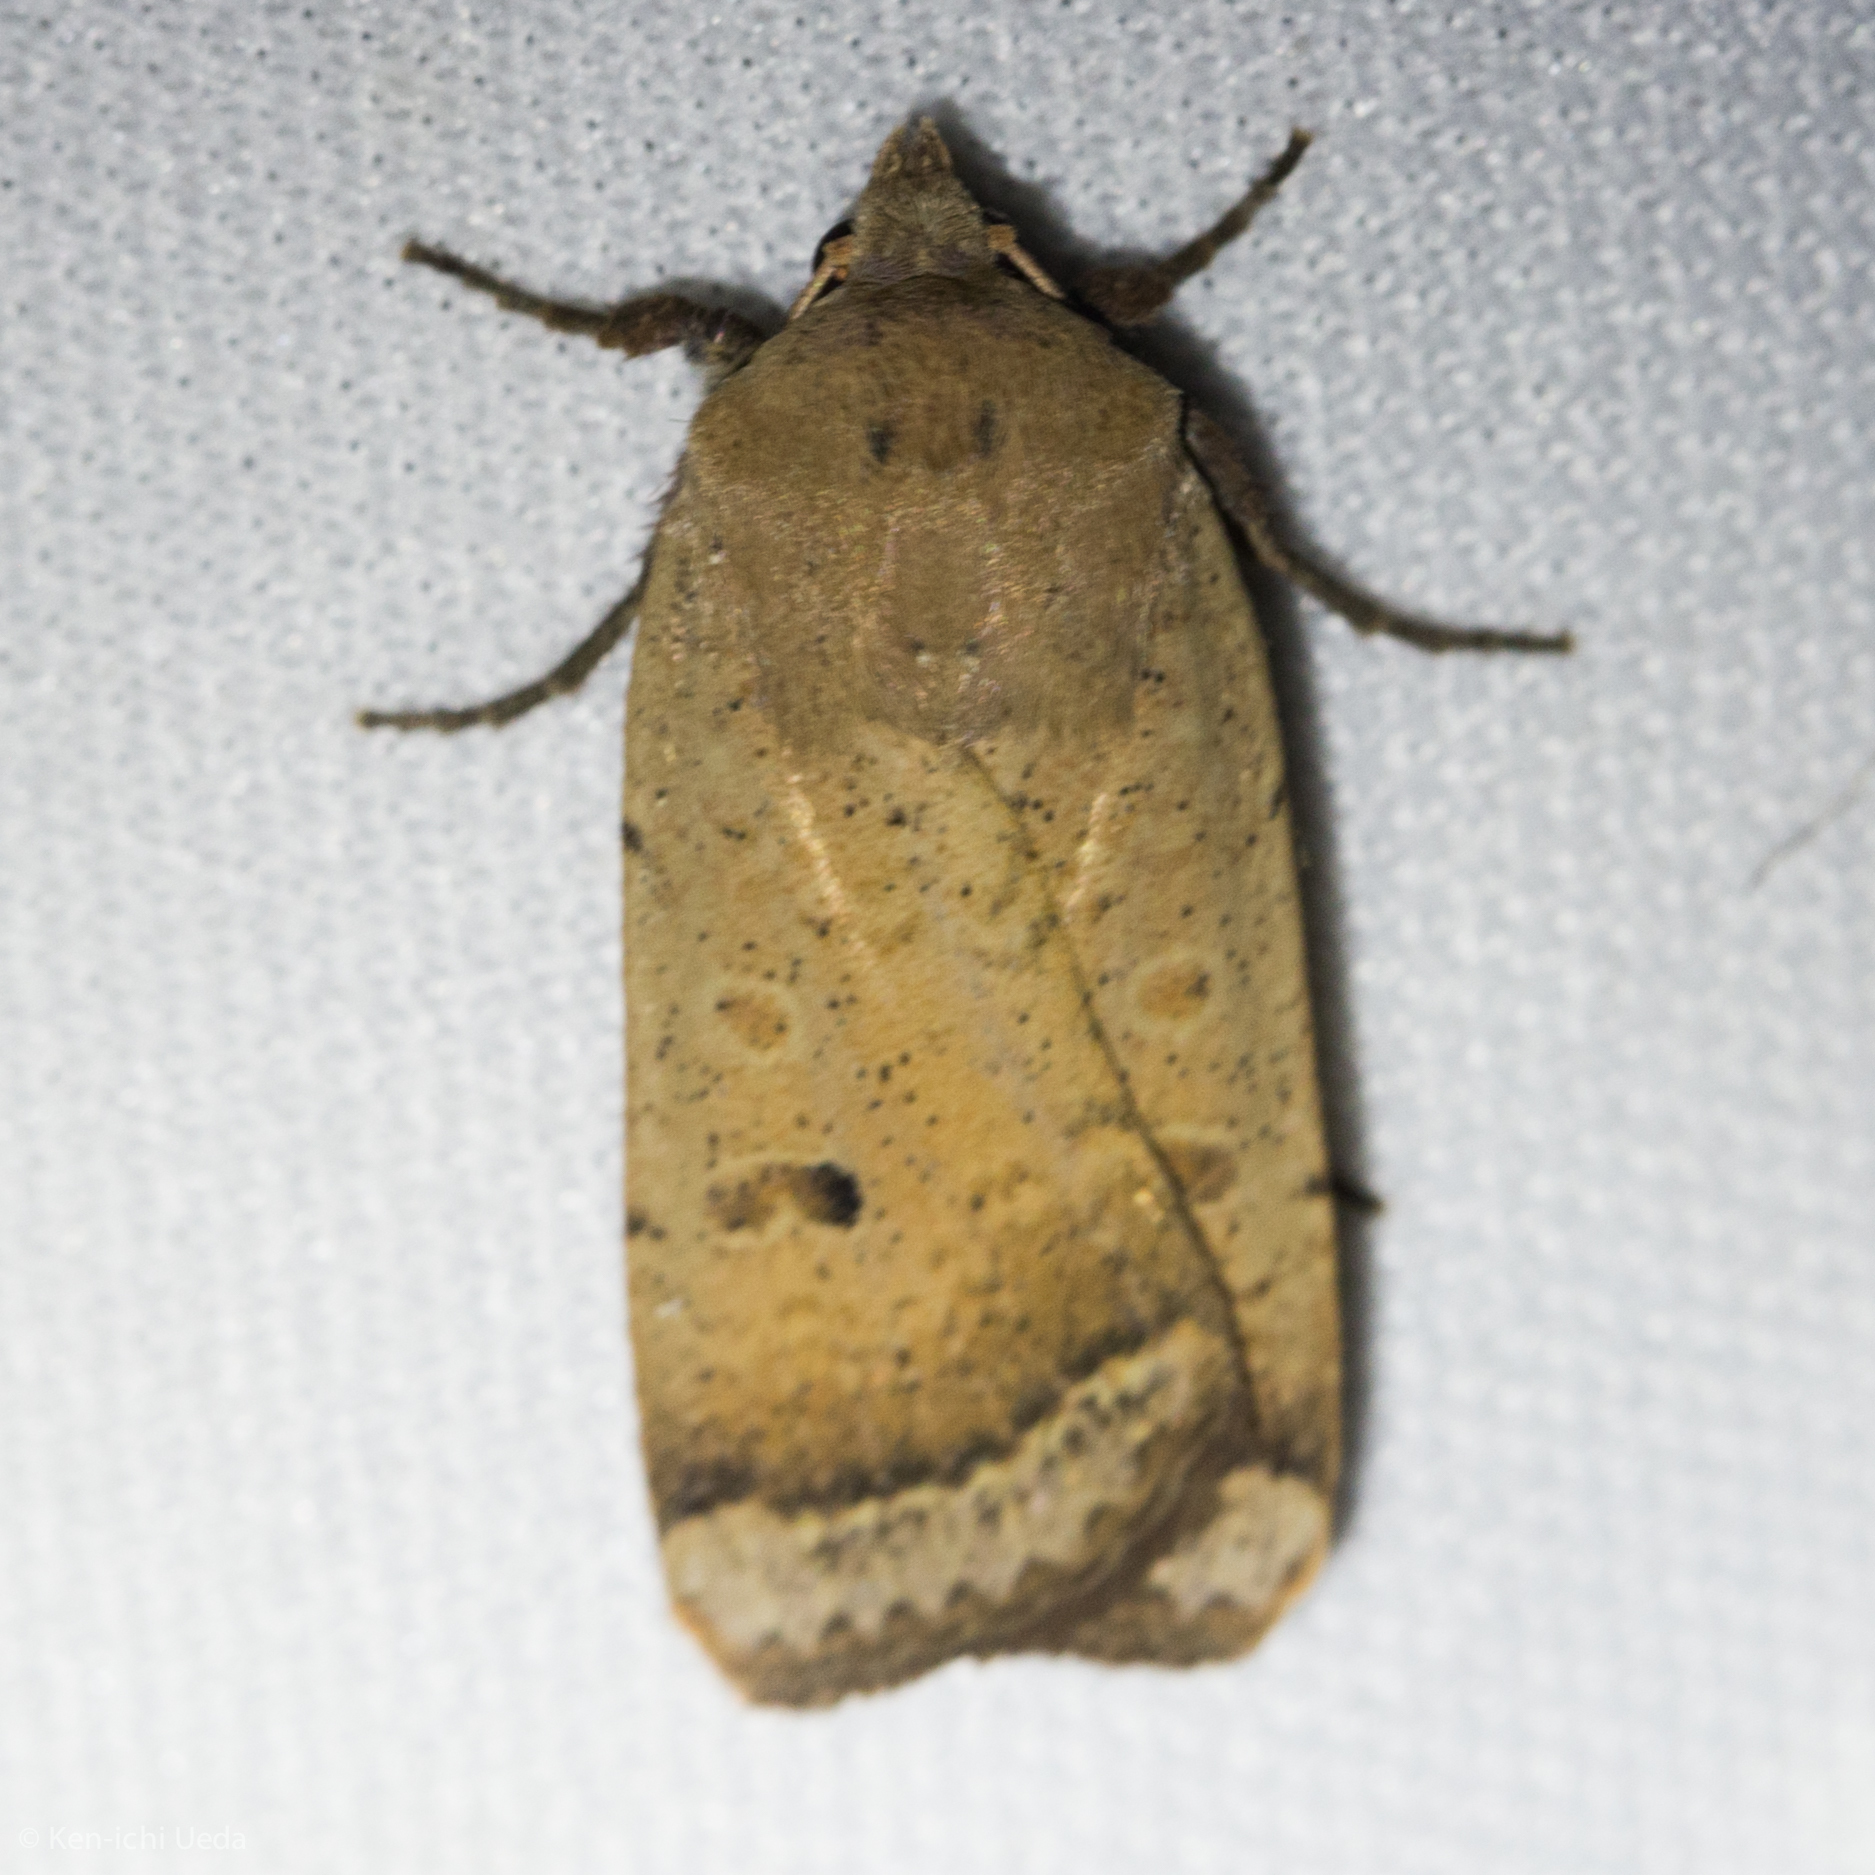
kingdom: Animalia
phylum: Arthropoda
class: Insecta
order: Lepidoptera
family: Noctuidae
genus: Abagrotis
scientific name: Abagrotis orbis
